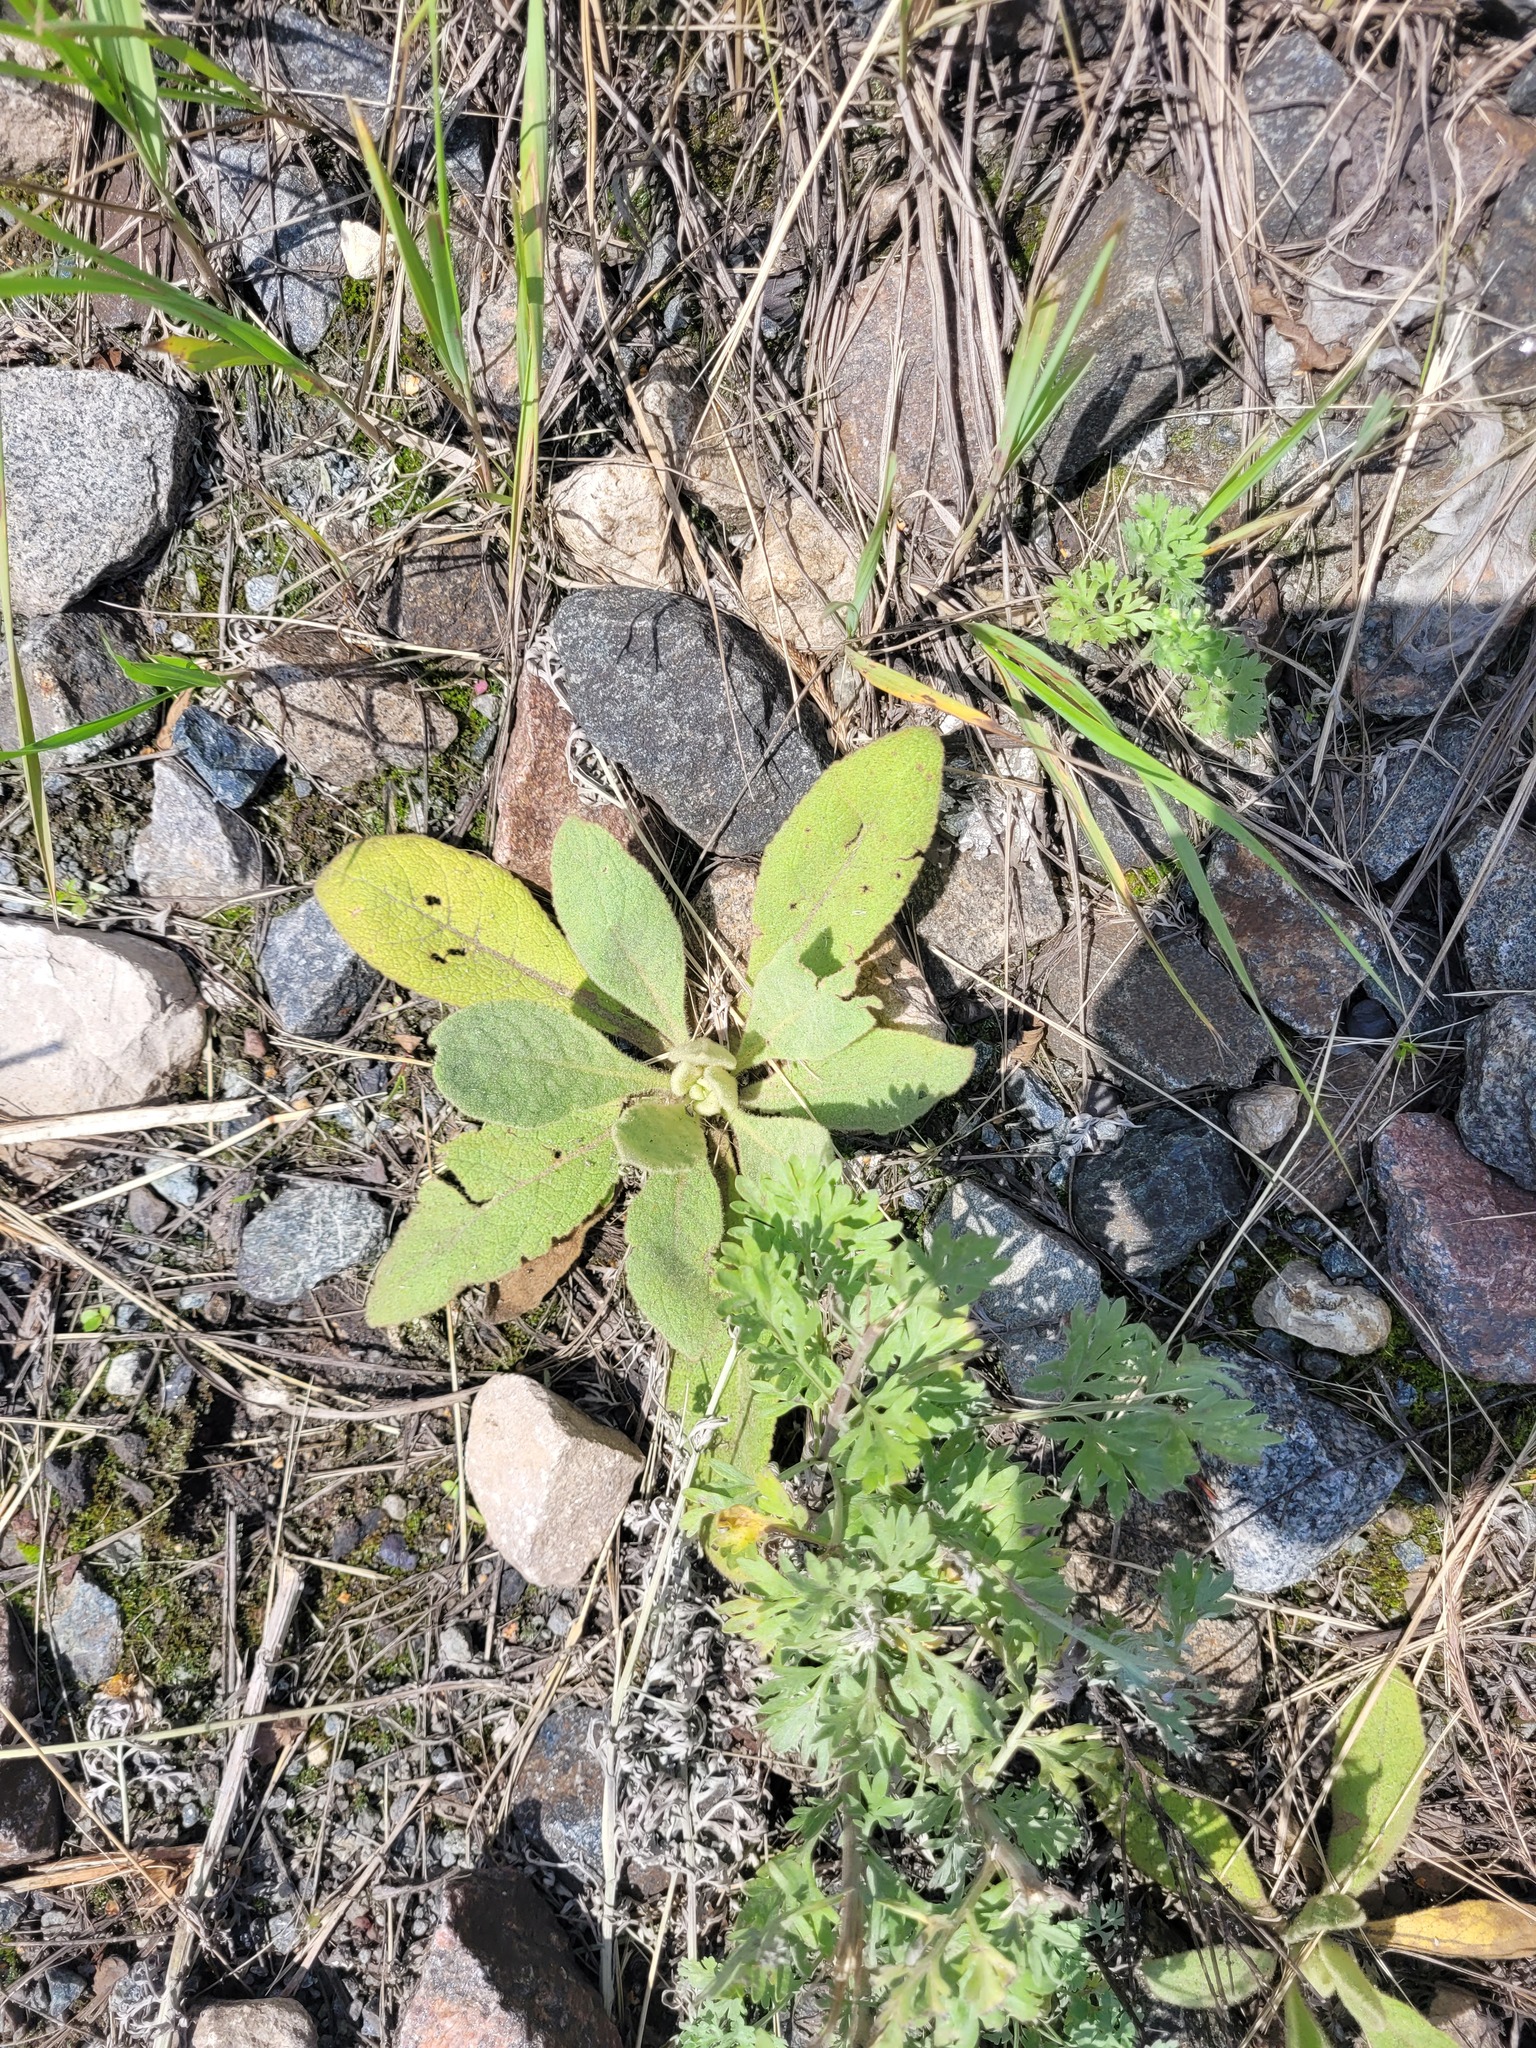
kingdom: Plantae
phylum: Tracheophyta
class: Magnoliopsida
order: Lamiales
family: Scrophulariaceae
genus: Verbascum
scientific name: Verbascum thapsus
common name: Common mullein
